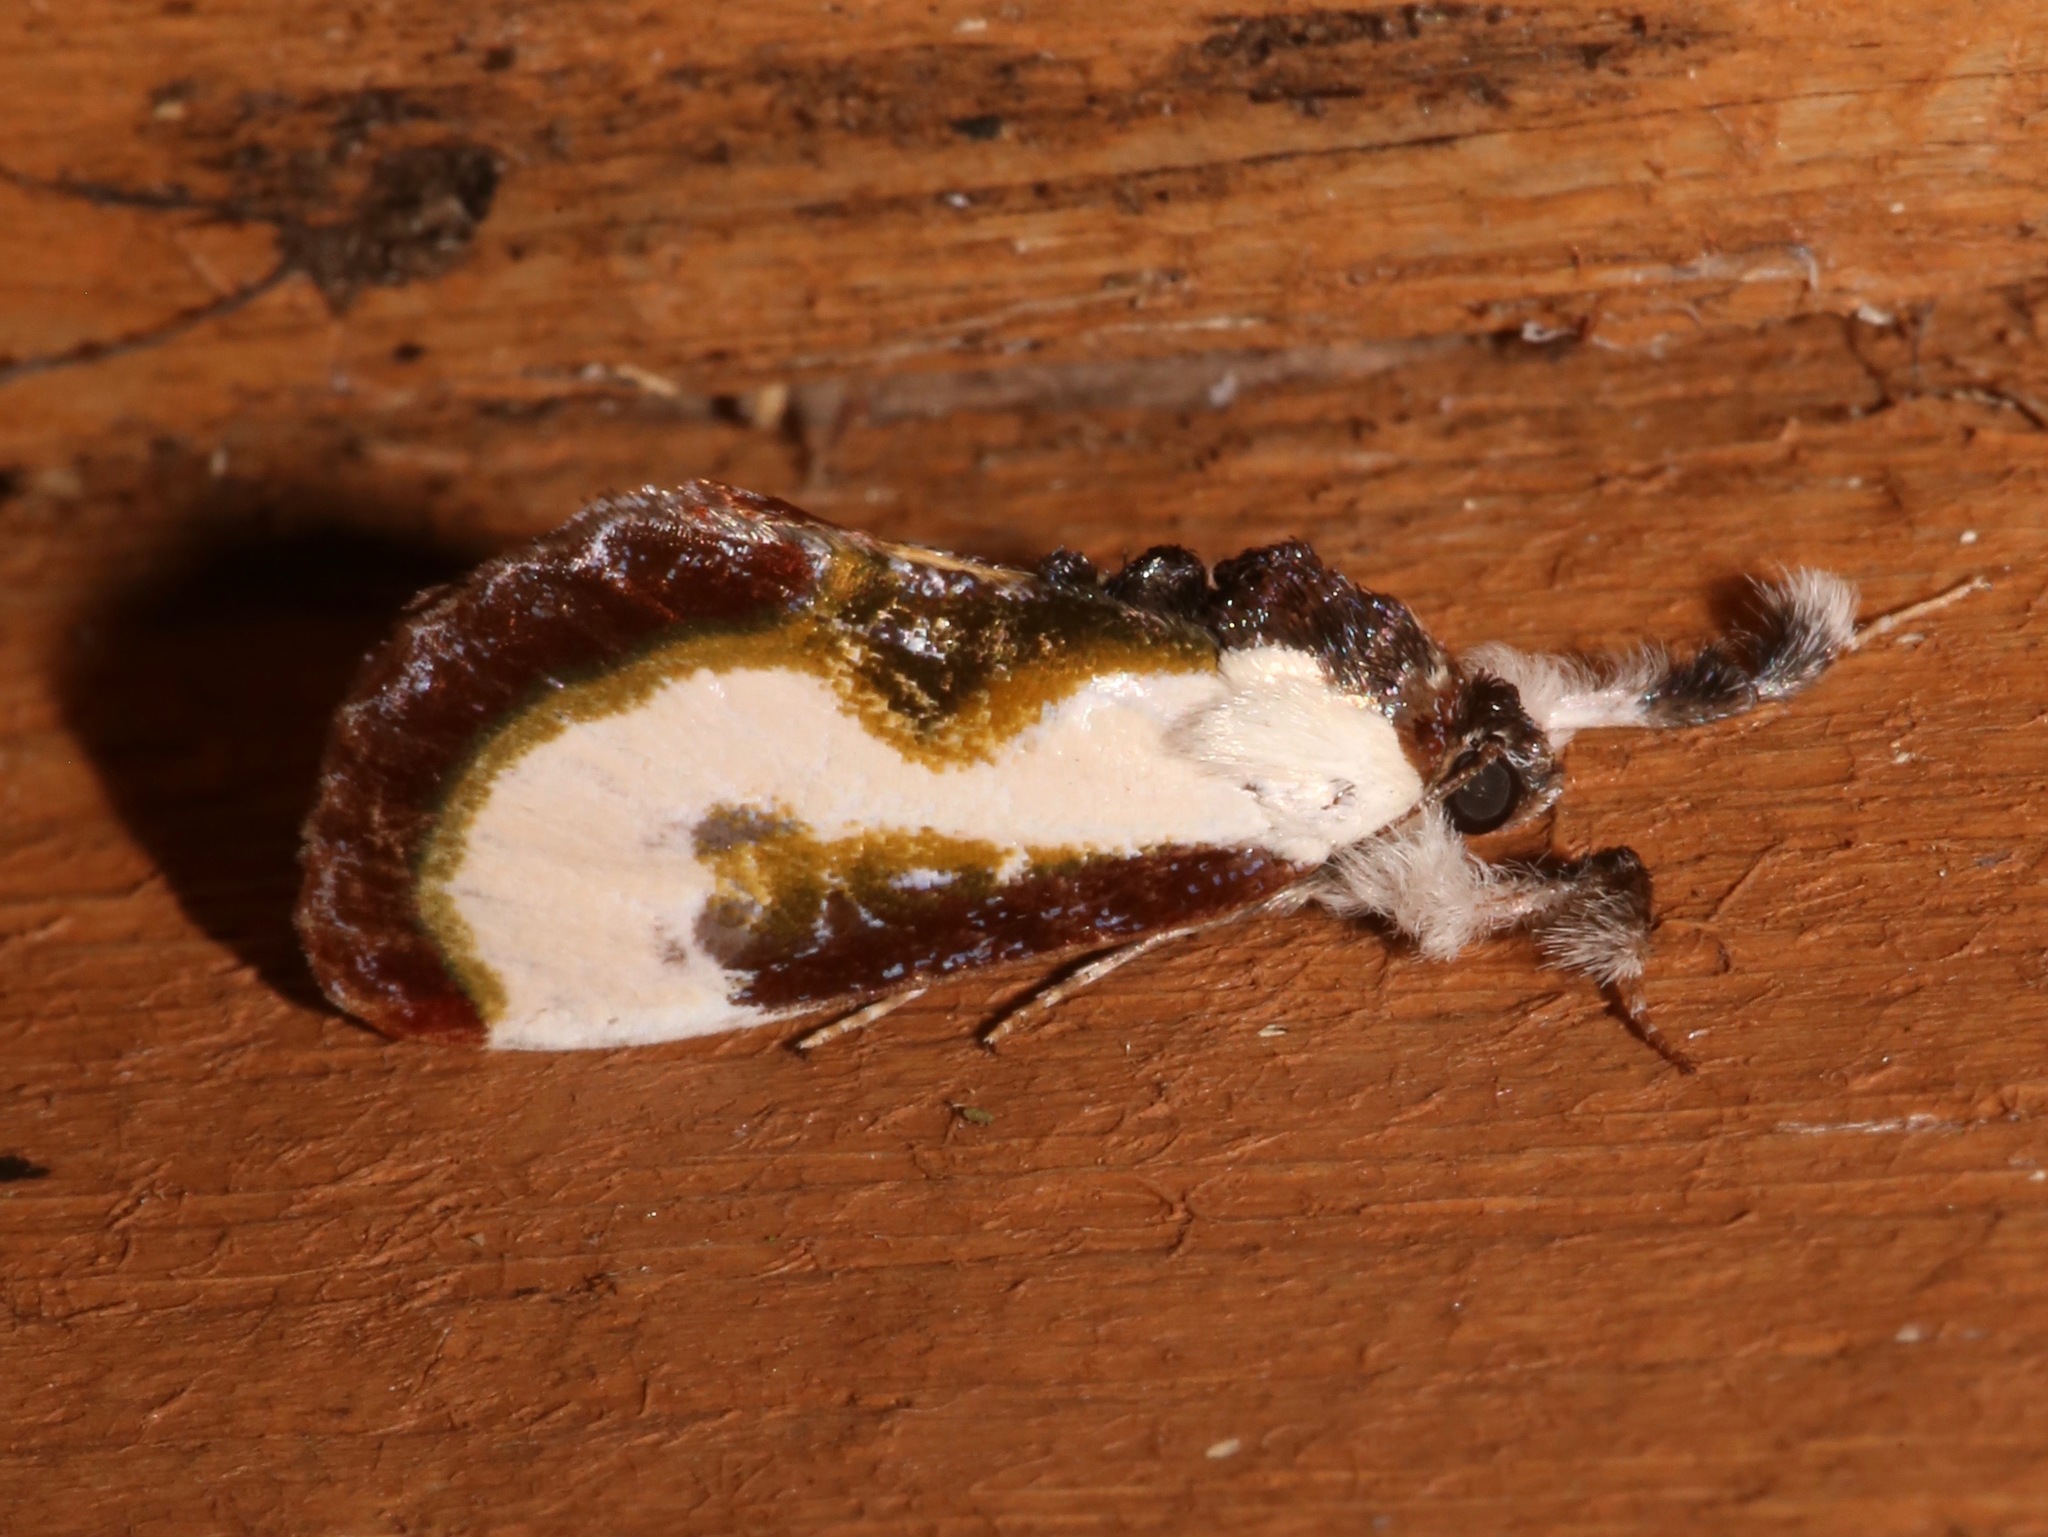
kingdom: Animalia
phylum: Arthropoda
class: Insecta
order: Lepidoptera
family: Noctuidae
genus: Eudryas
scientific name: Eudryas grata
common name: Beautiful wood-nymph
